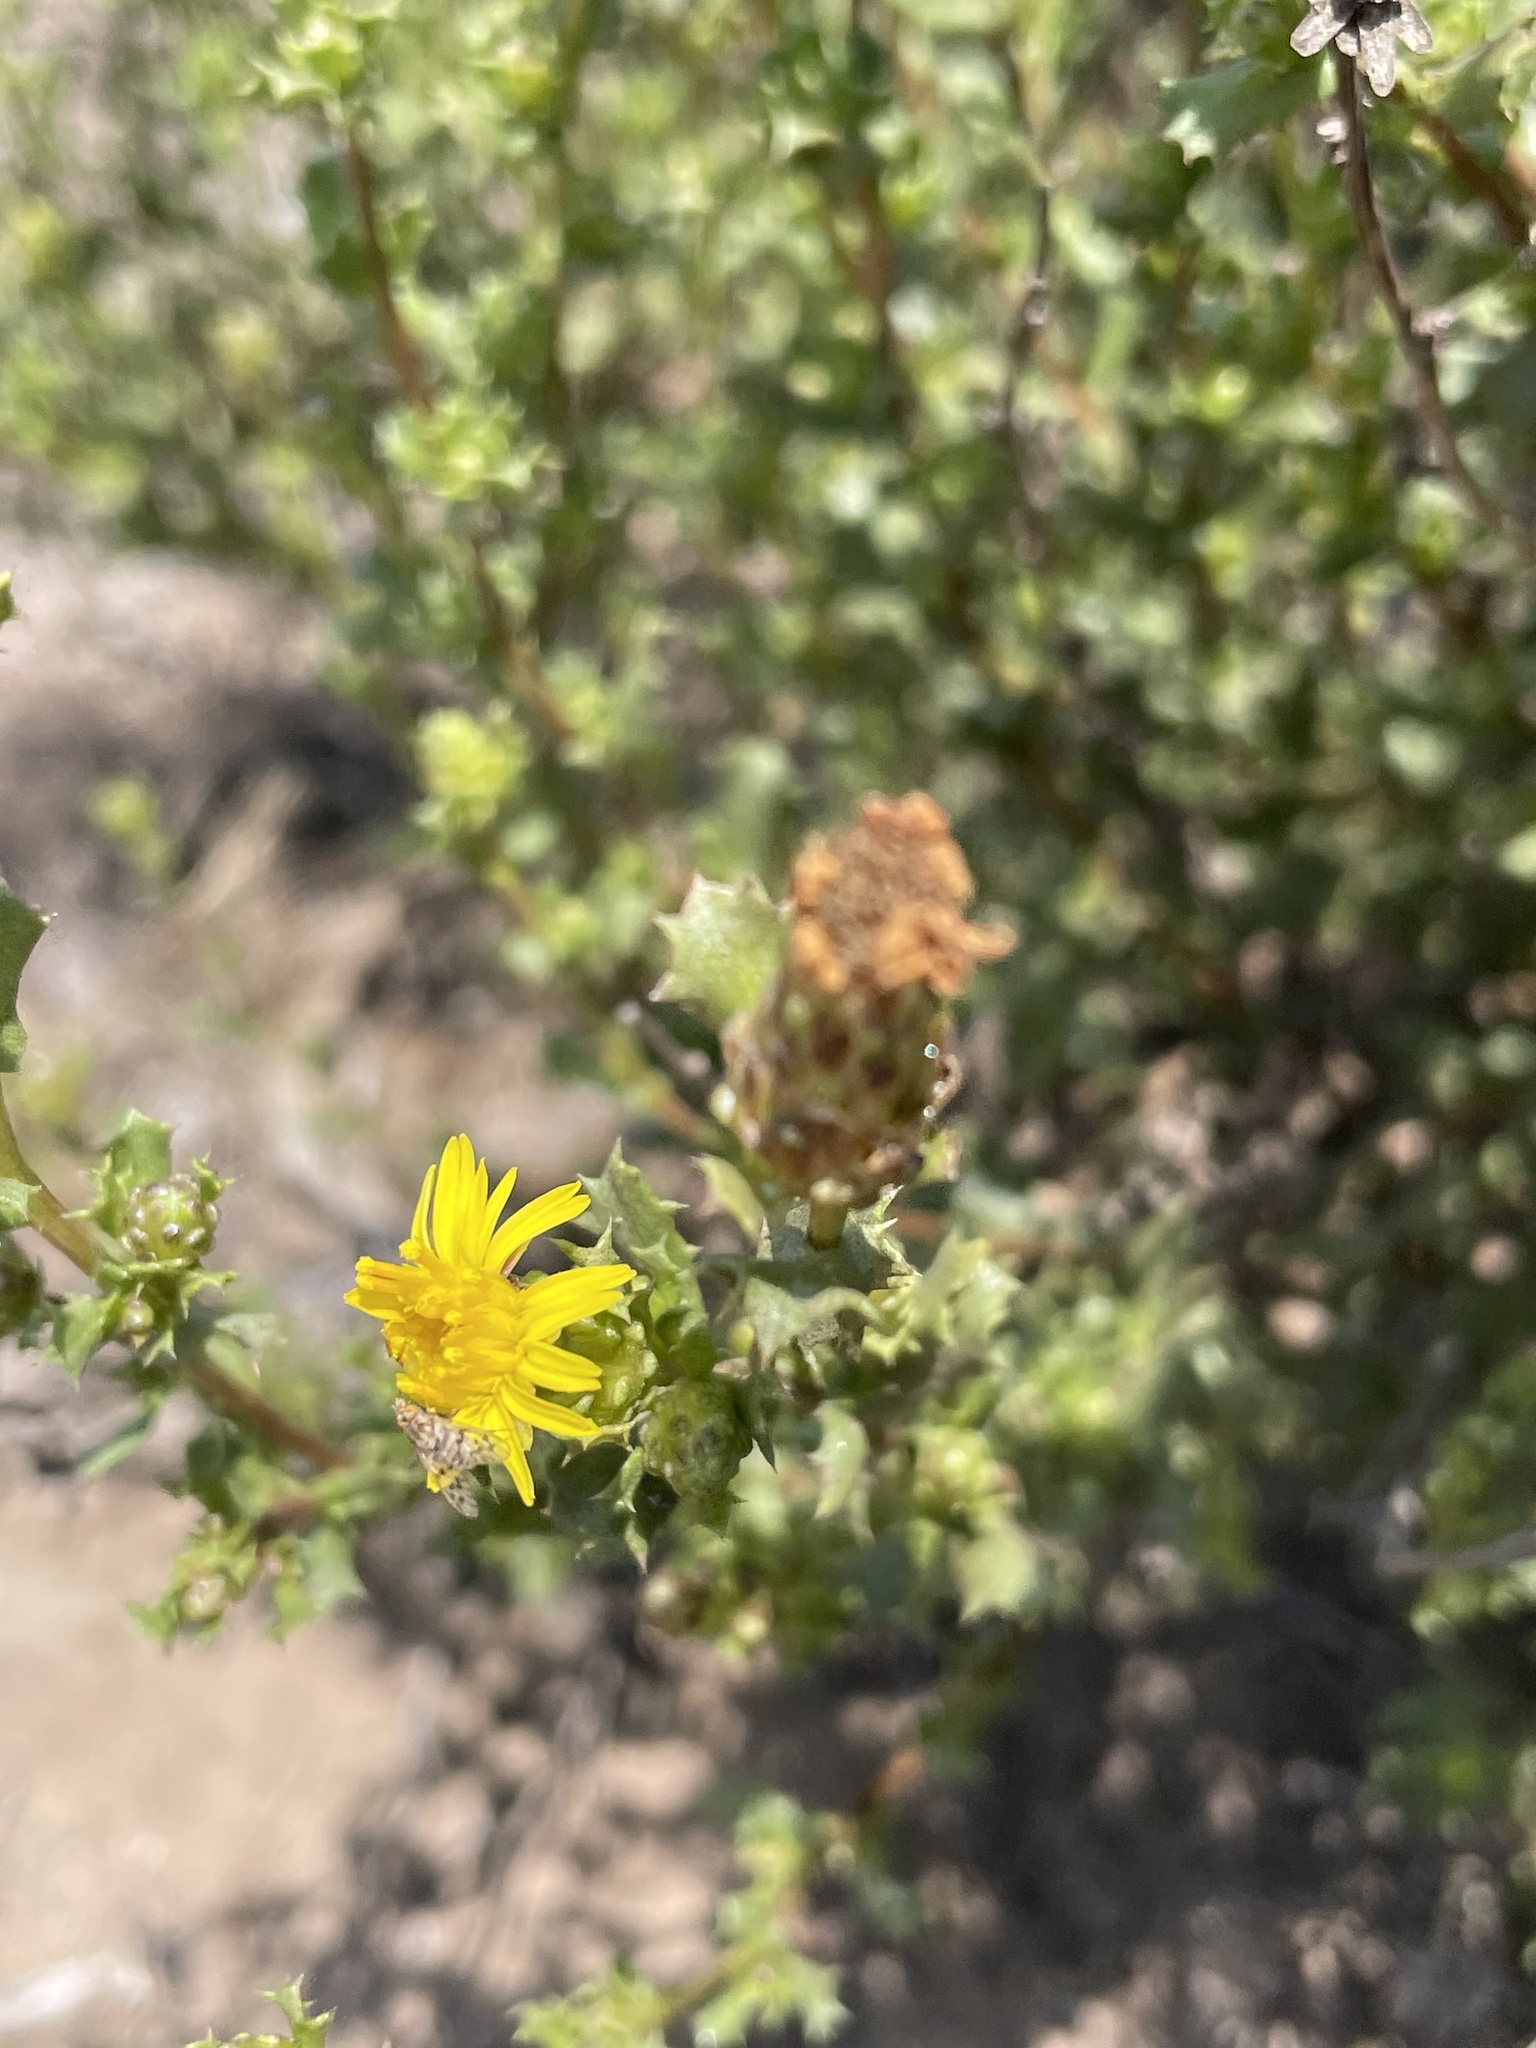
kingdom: Plantae
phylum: Tracheophyta
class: Magnoliopsida
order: Asterales
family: Asteraceae
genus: Hazardia
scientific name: Hazardia berberidis
